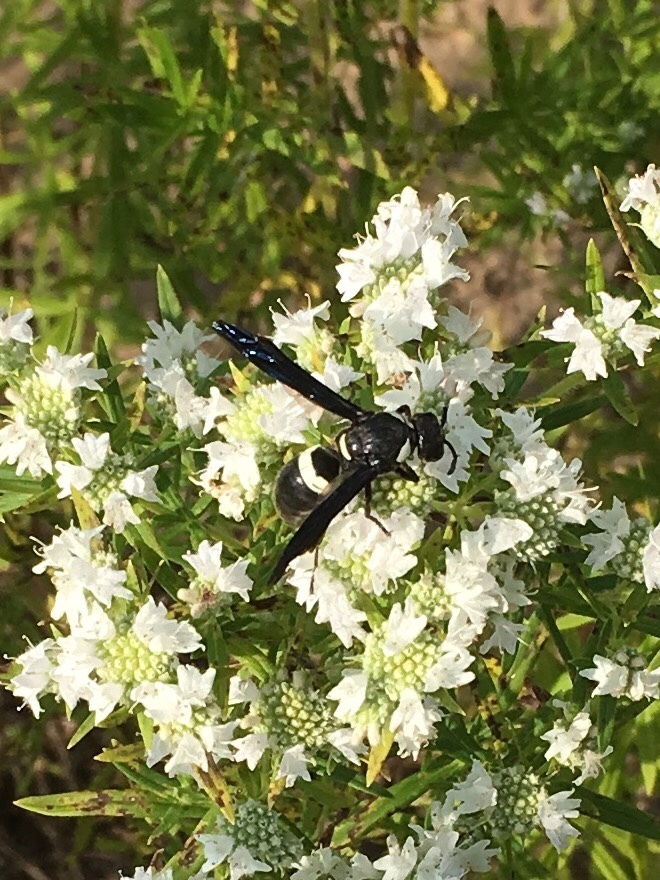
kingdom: Animalia
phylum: Arthropoda
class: Insecta
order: Hymenoptera
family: Eumenidae
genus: Monobia
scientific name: Monobia quadridens
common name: Four-toothed mason wasp
